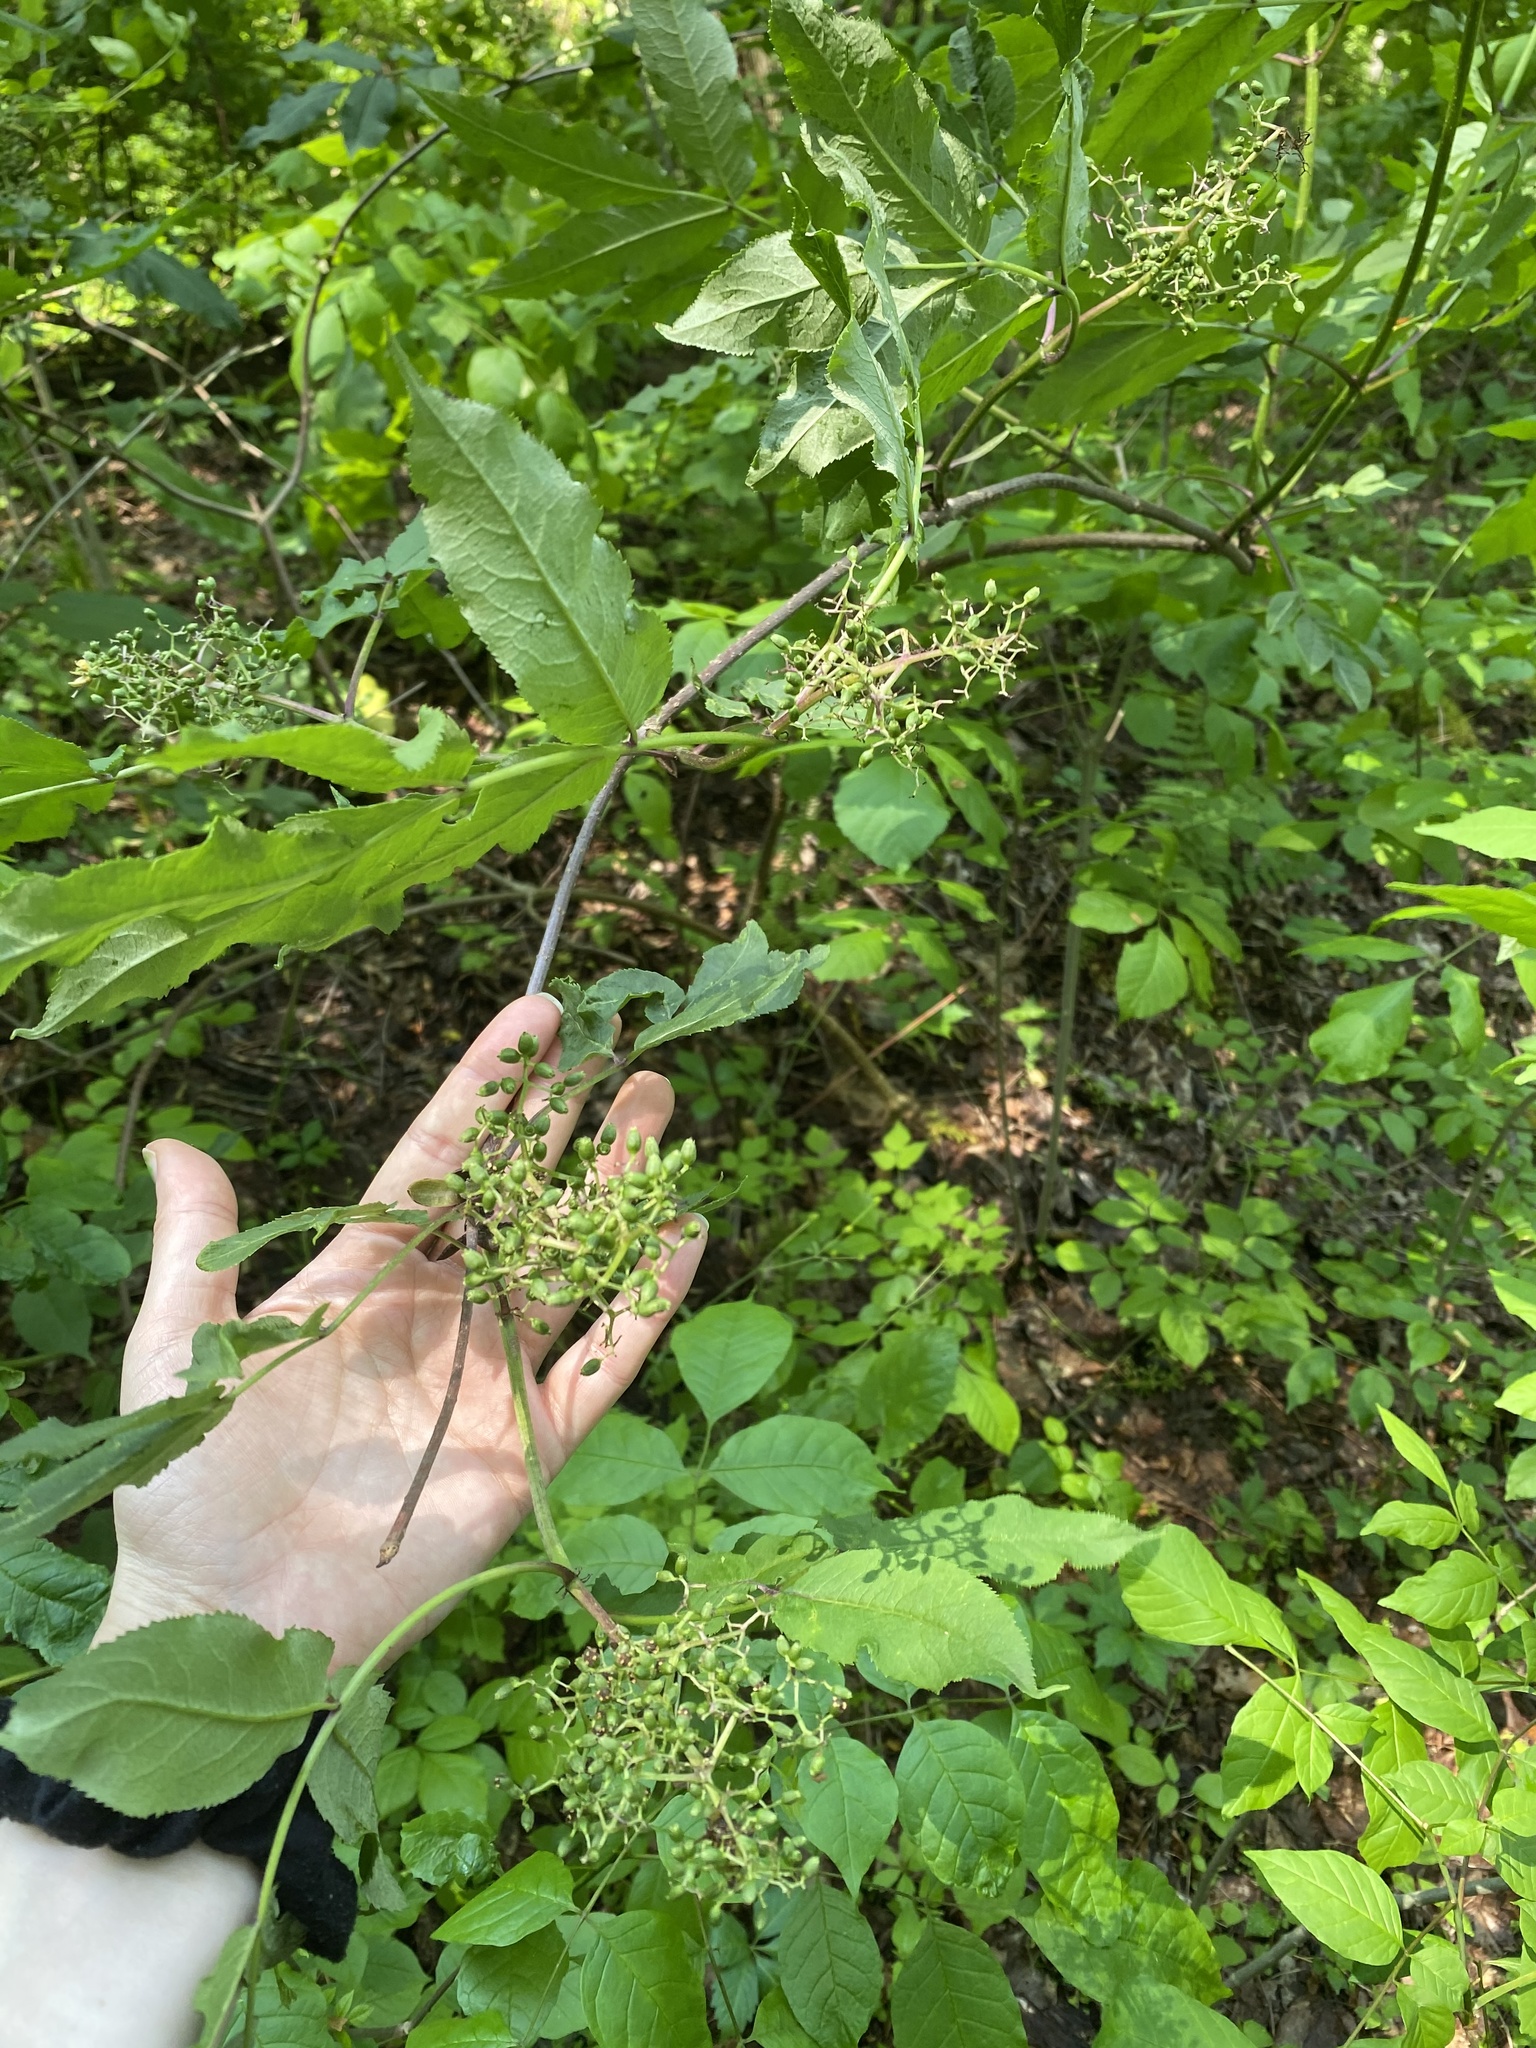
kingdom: Plantae
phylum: Tracheophyta
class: Magnoliopsida
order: Dipsacales
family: Viburnaceae
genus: Sambucus
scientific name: Sambucus racemosa
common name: Red-berried elder
